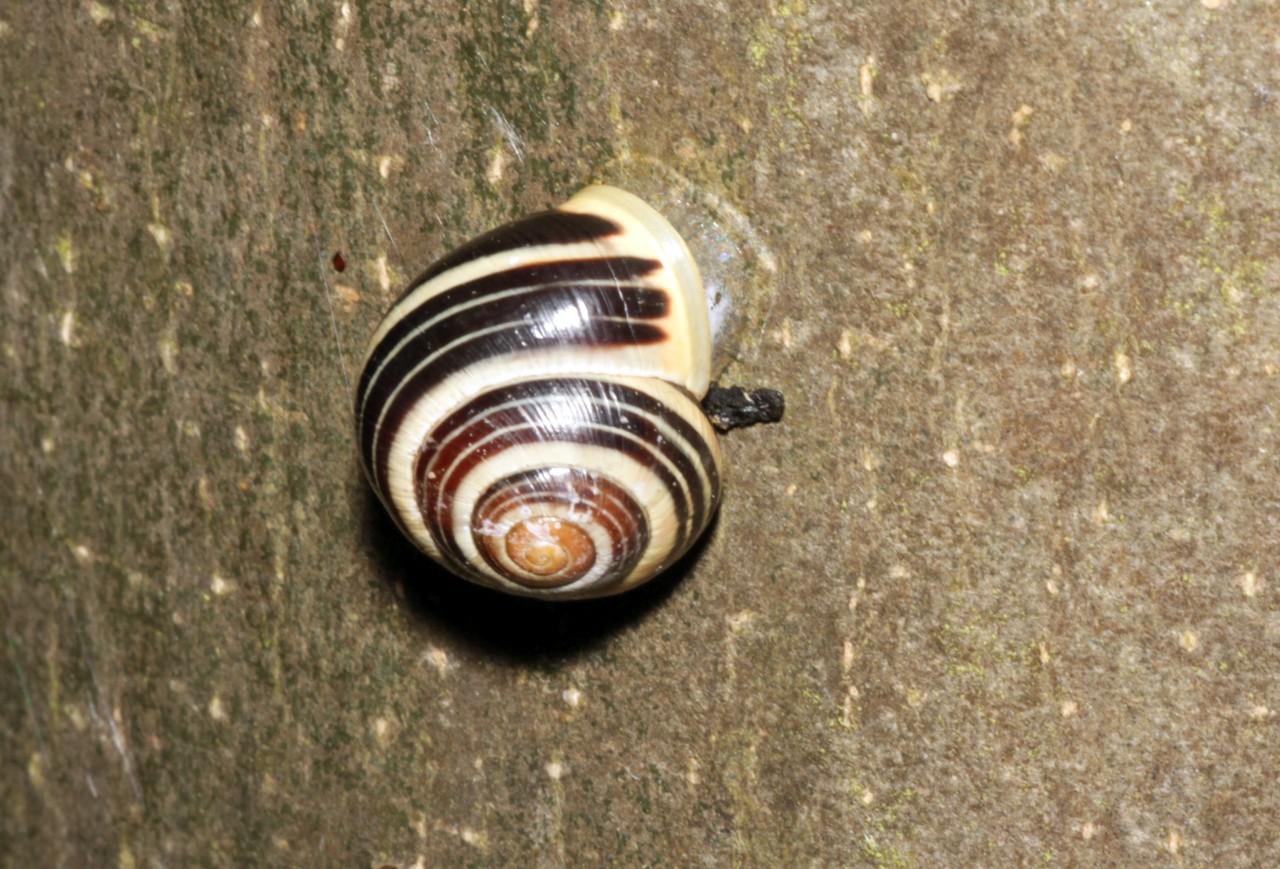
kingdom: Animalia
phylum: Mollusca
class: Gastropoda
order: Stylommatophora
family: Helicidae
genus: Cepaea
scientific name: Cepaea hortensis
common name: White-lip gardensnail
